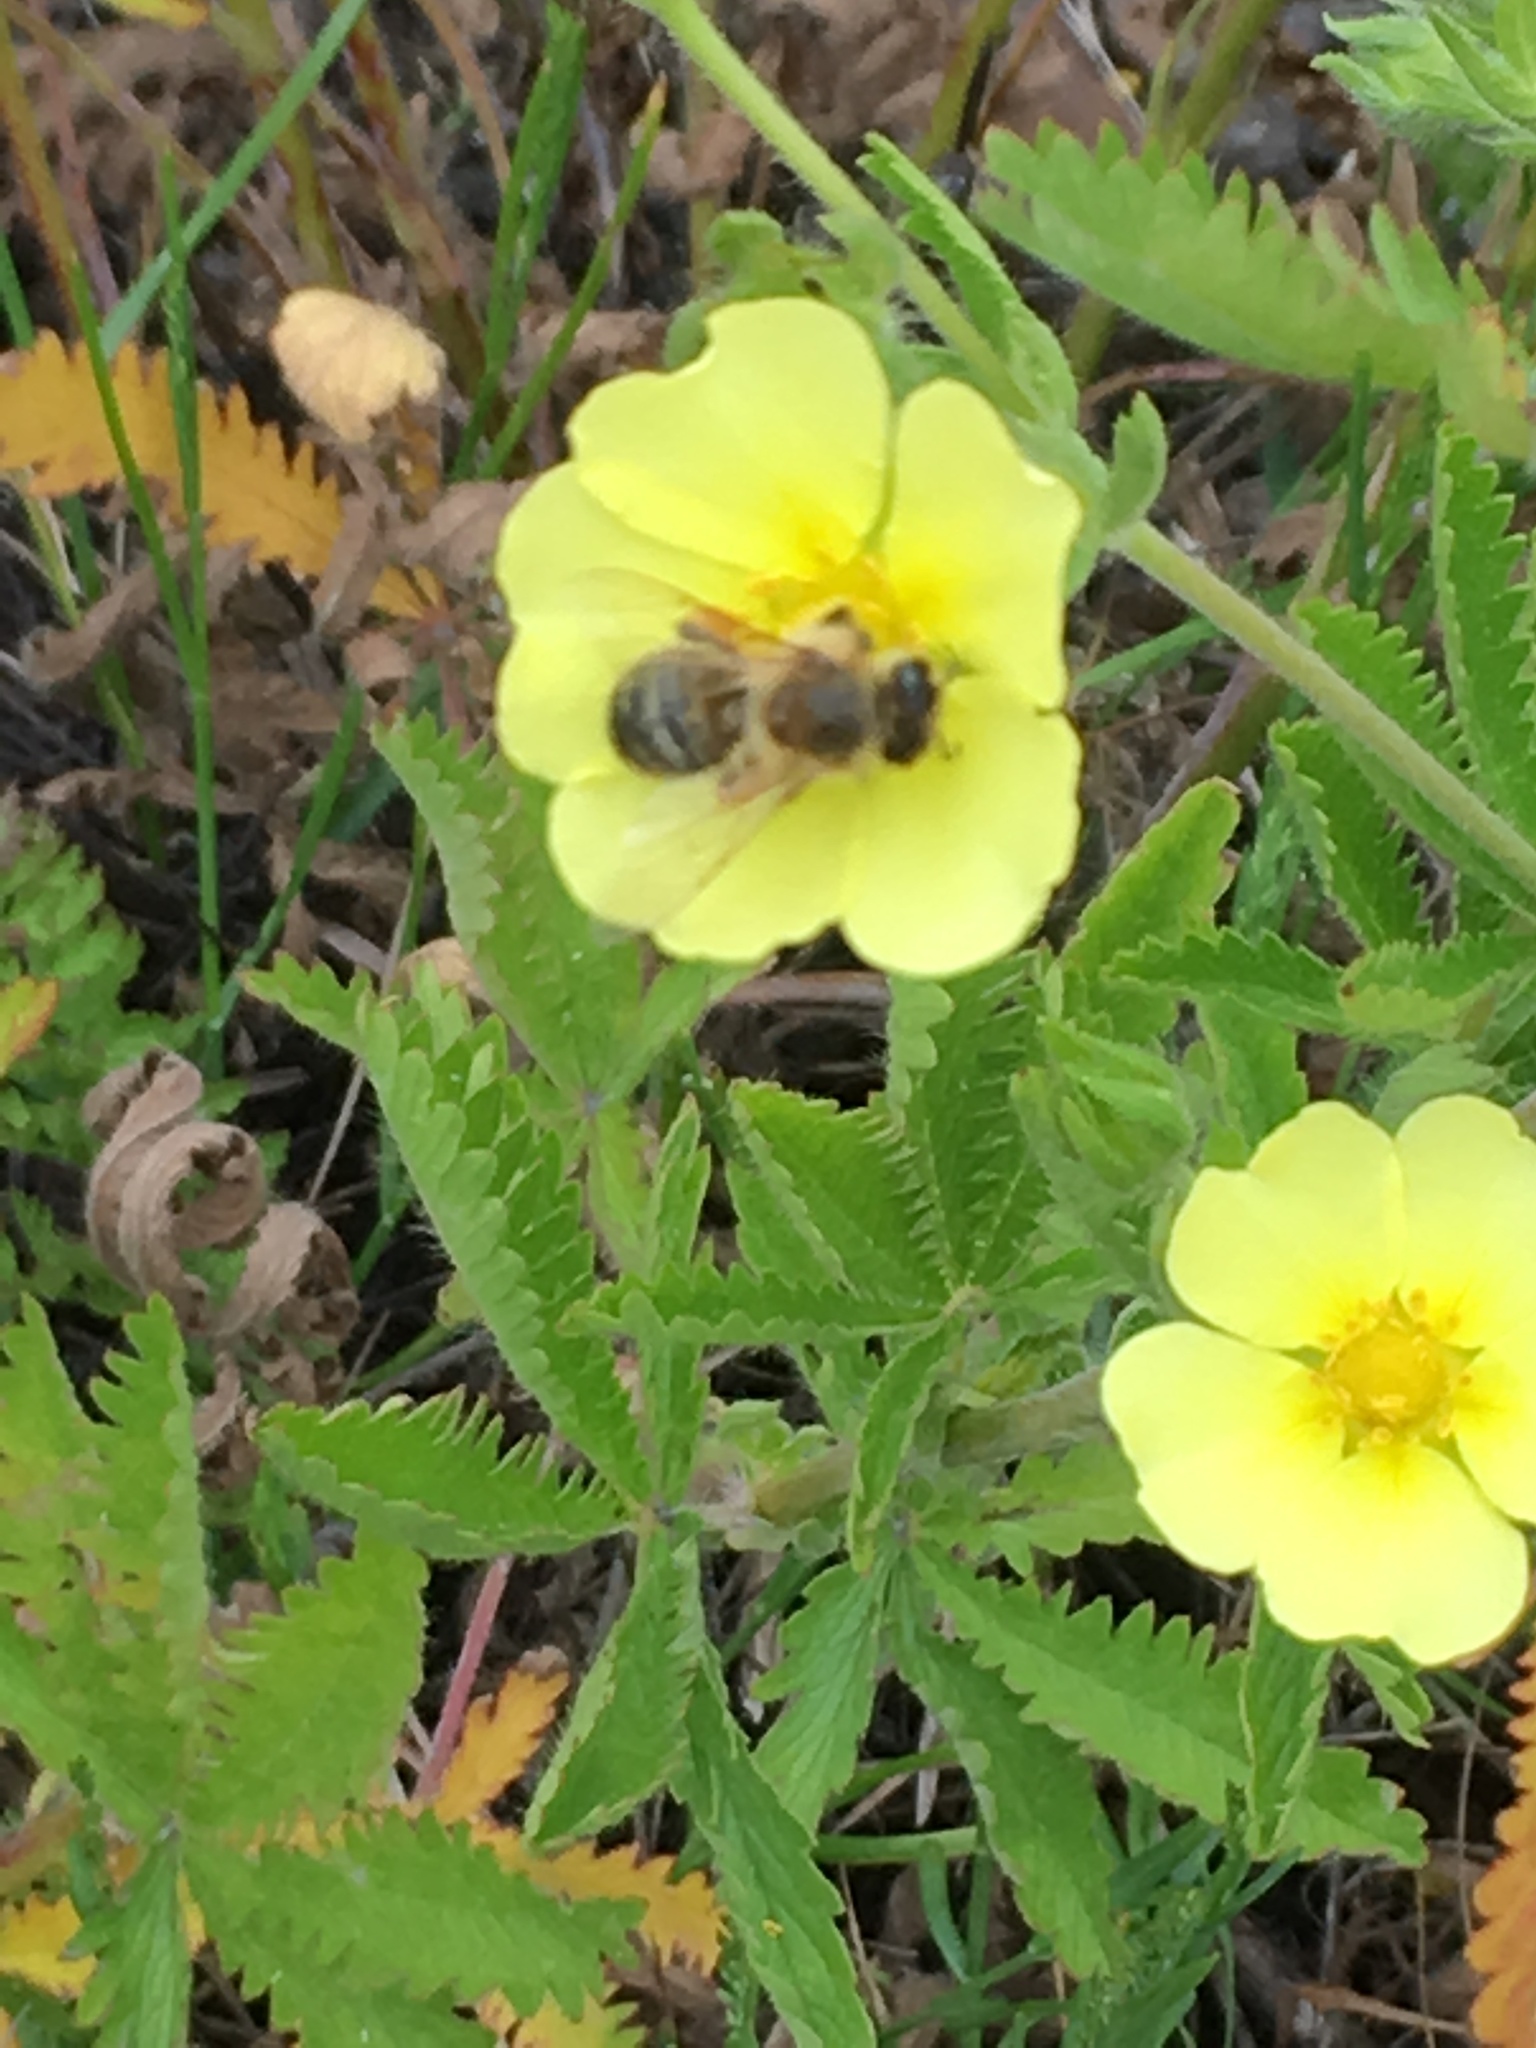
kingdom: Animalia
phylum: Arthropoda
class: Insecta
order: Hymenoptera
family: Apidae
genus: Apis
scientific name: Apis mellifera
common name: Honey bee
